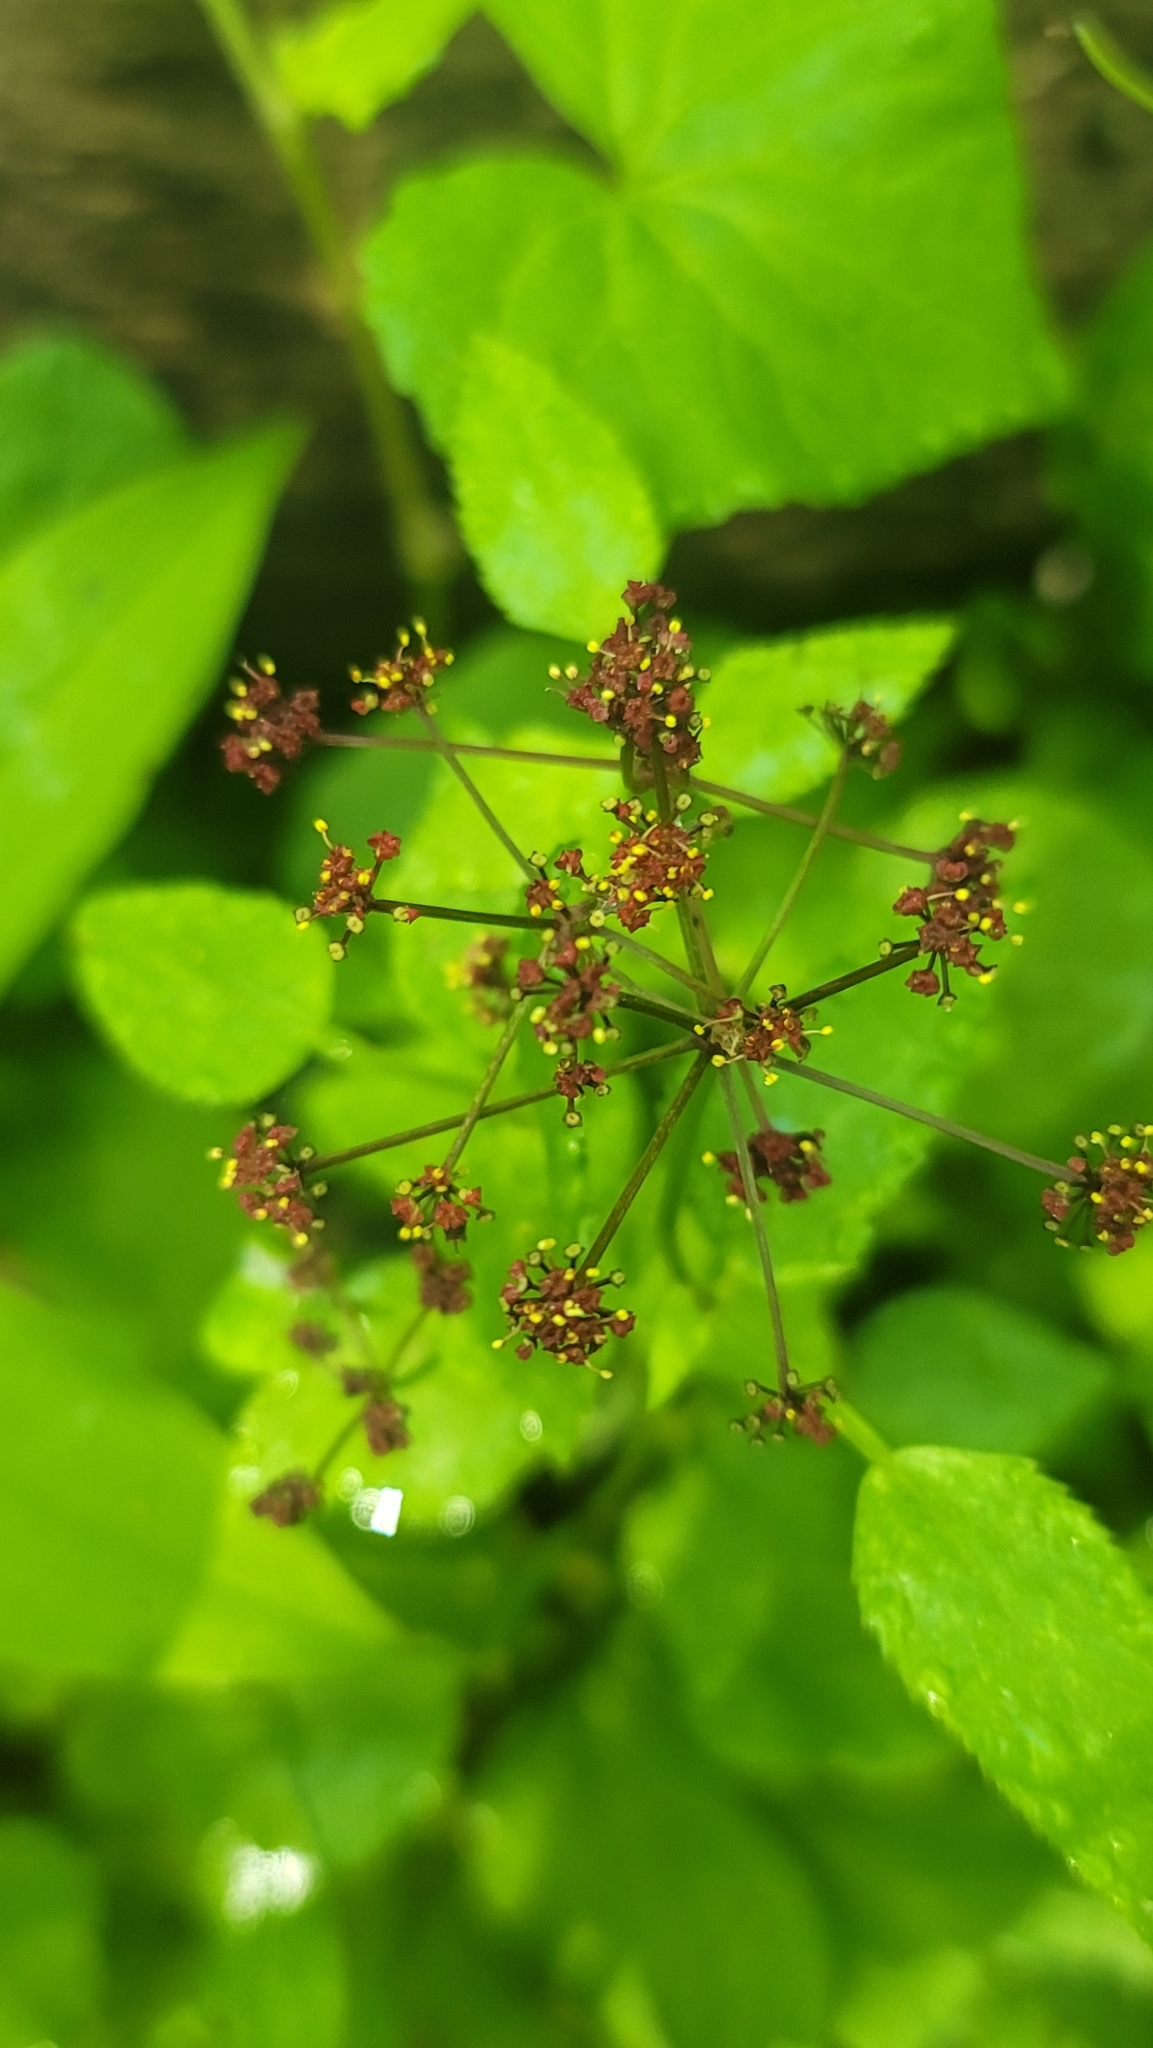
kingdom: Plantae
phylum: Tracheophyta
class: Magnoliopsida
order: Apiales
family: Apiaceae
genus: Thaspium
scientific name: Thaspium trifoliatum
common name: Purple meadow-parsnip
